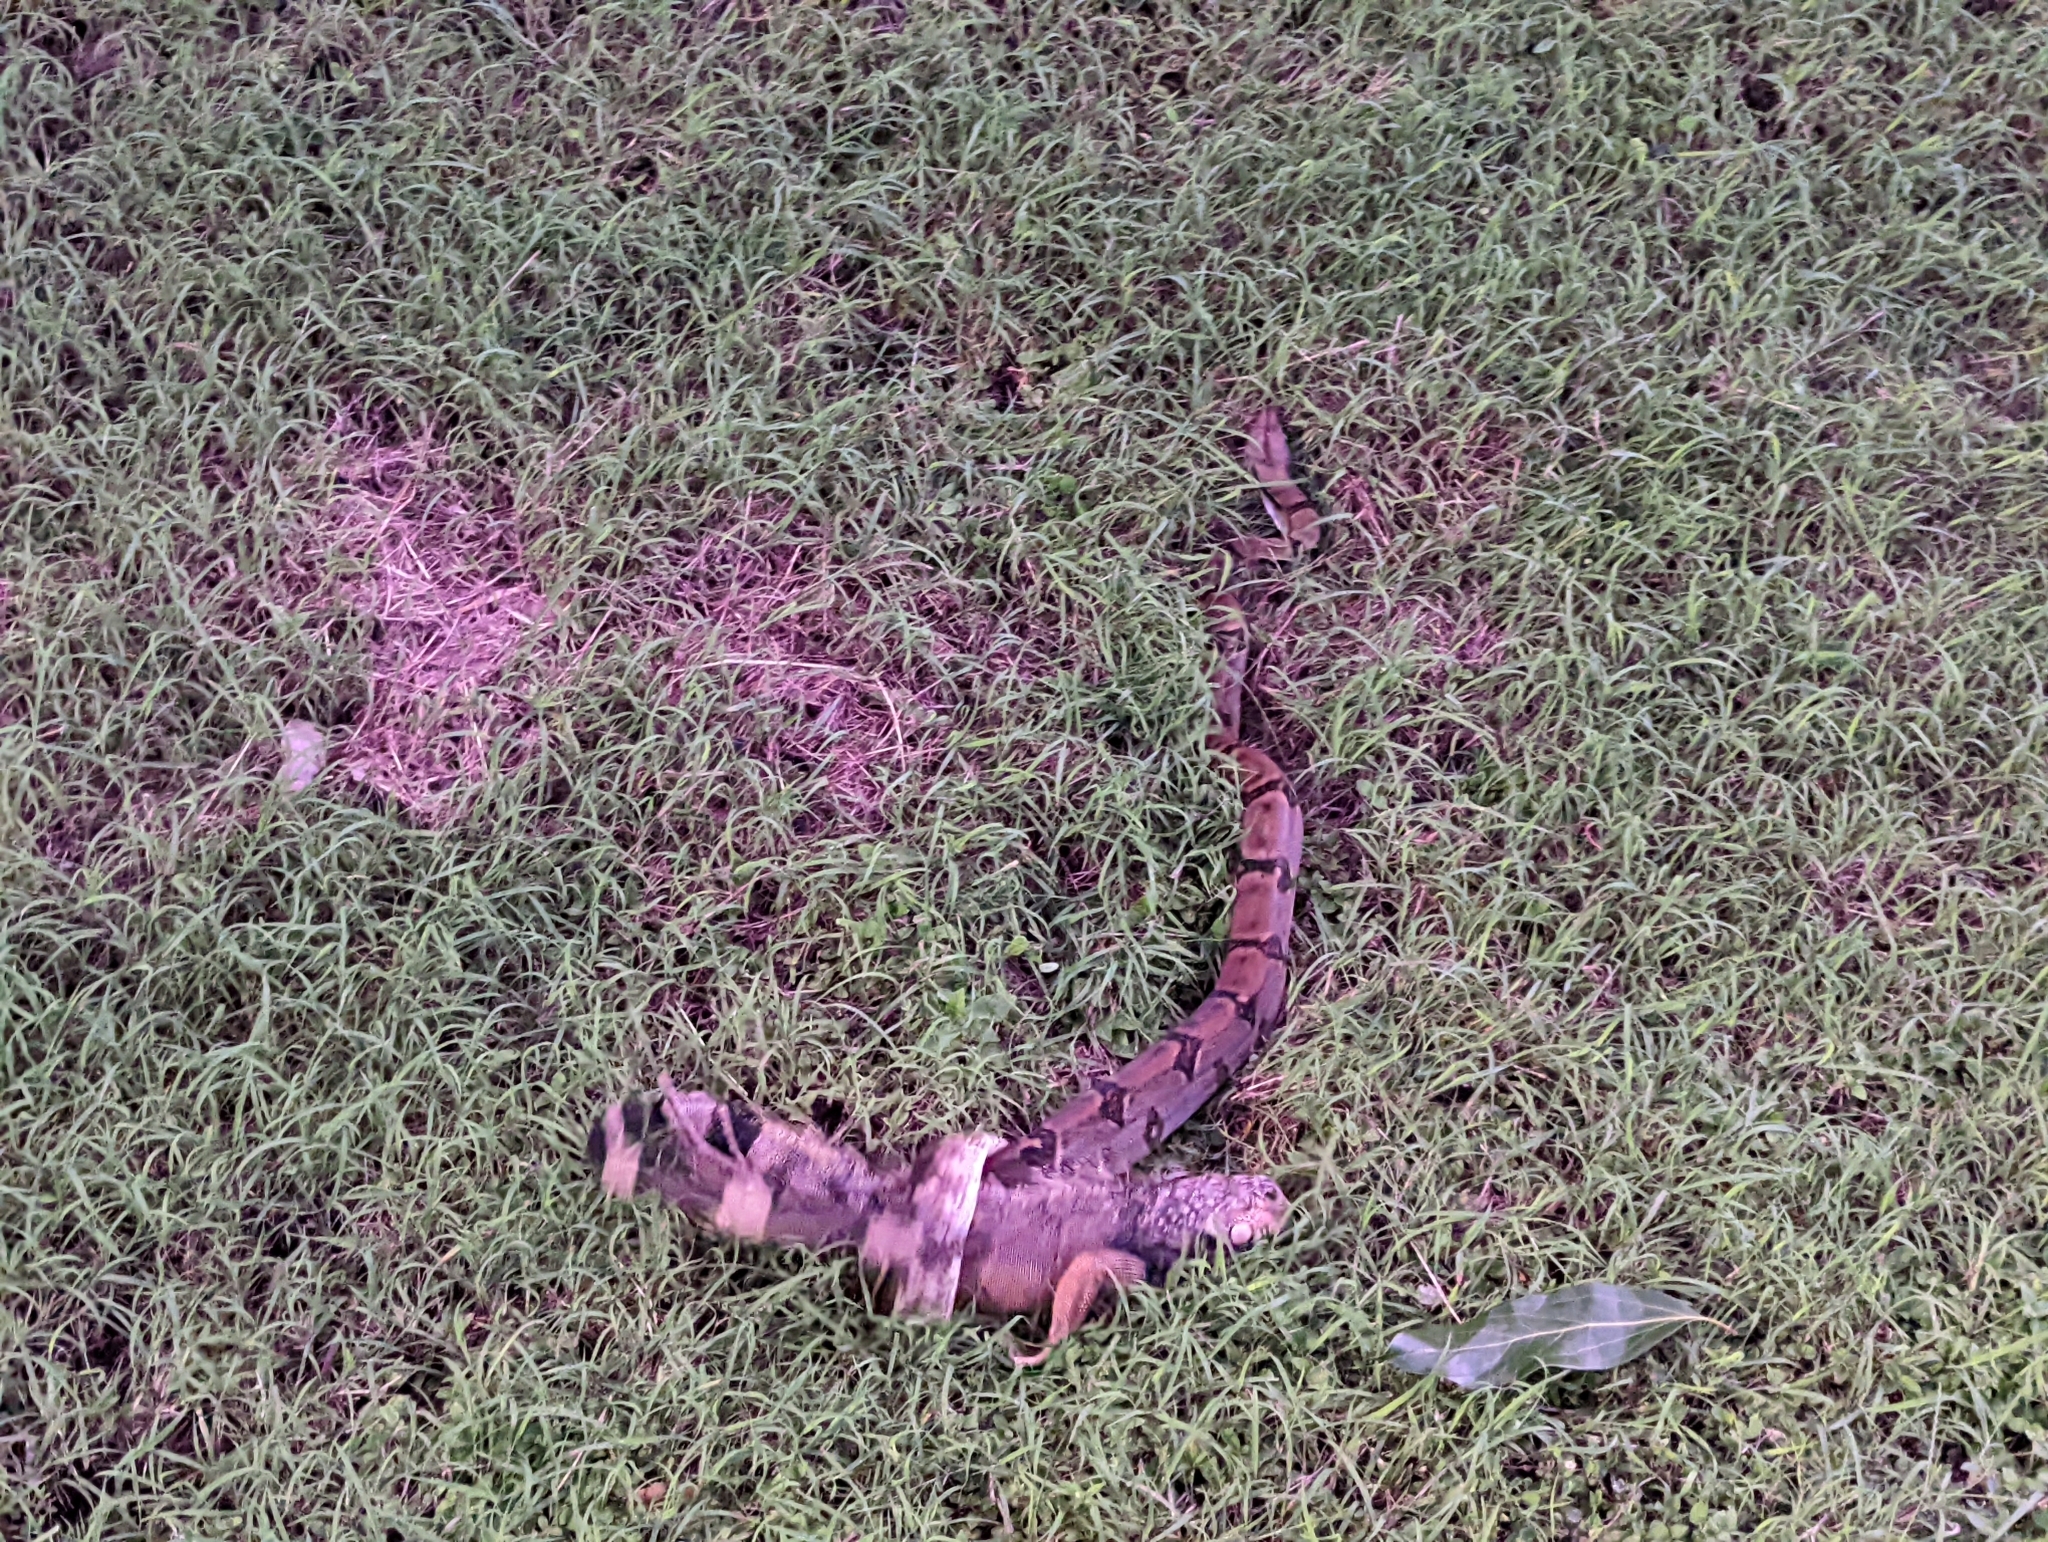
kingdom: Animalia
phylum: Chordata
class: Squamata
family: Boidae
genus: Boa
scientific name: Boa imperator
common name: Central american boa
